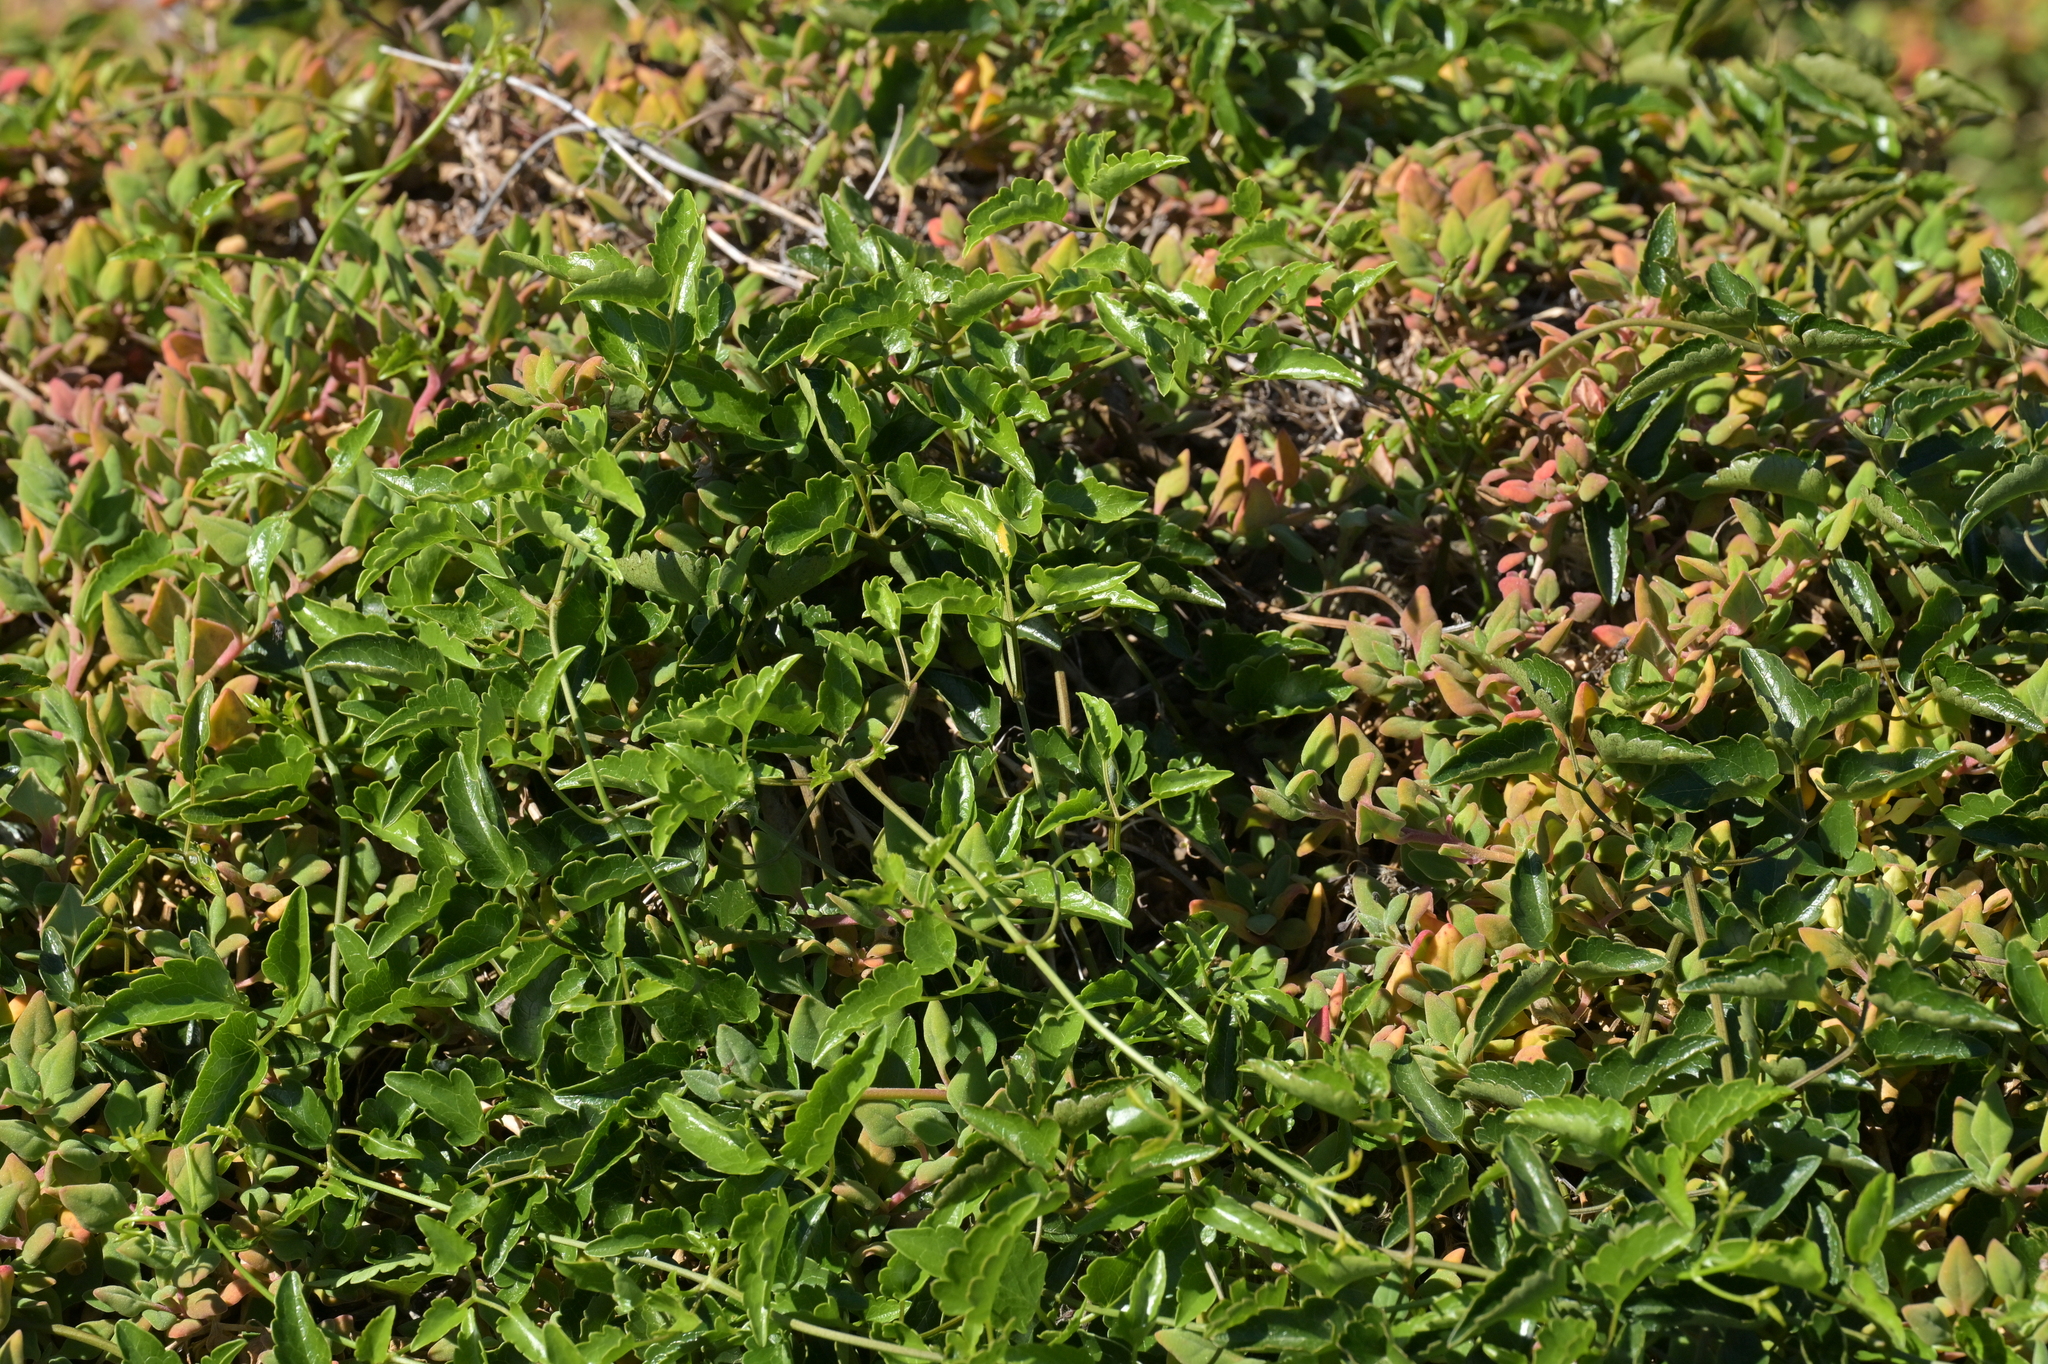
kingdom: Plantae
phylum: Tracheophyta
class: Magnoliopsida
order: Ranunculales
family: Ranunculaceae
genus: Clematis
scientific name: Clematis forsteri
